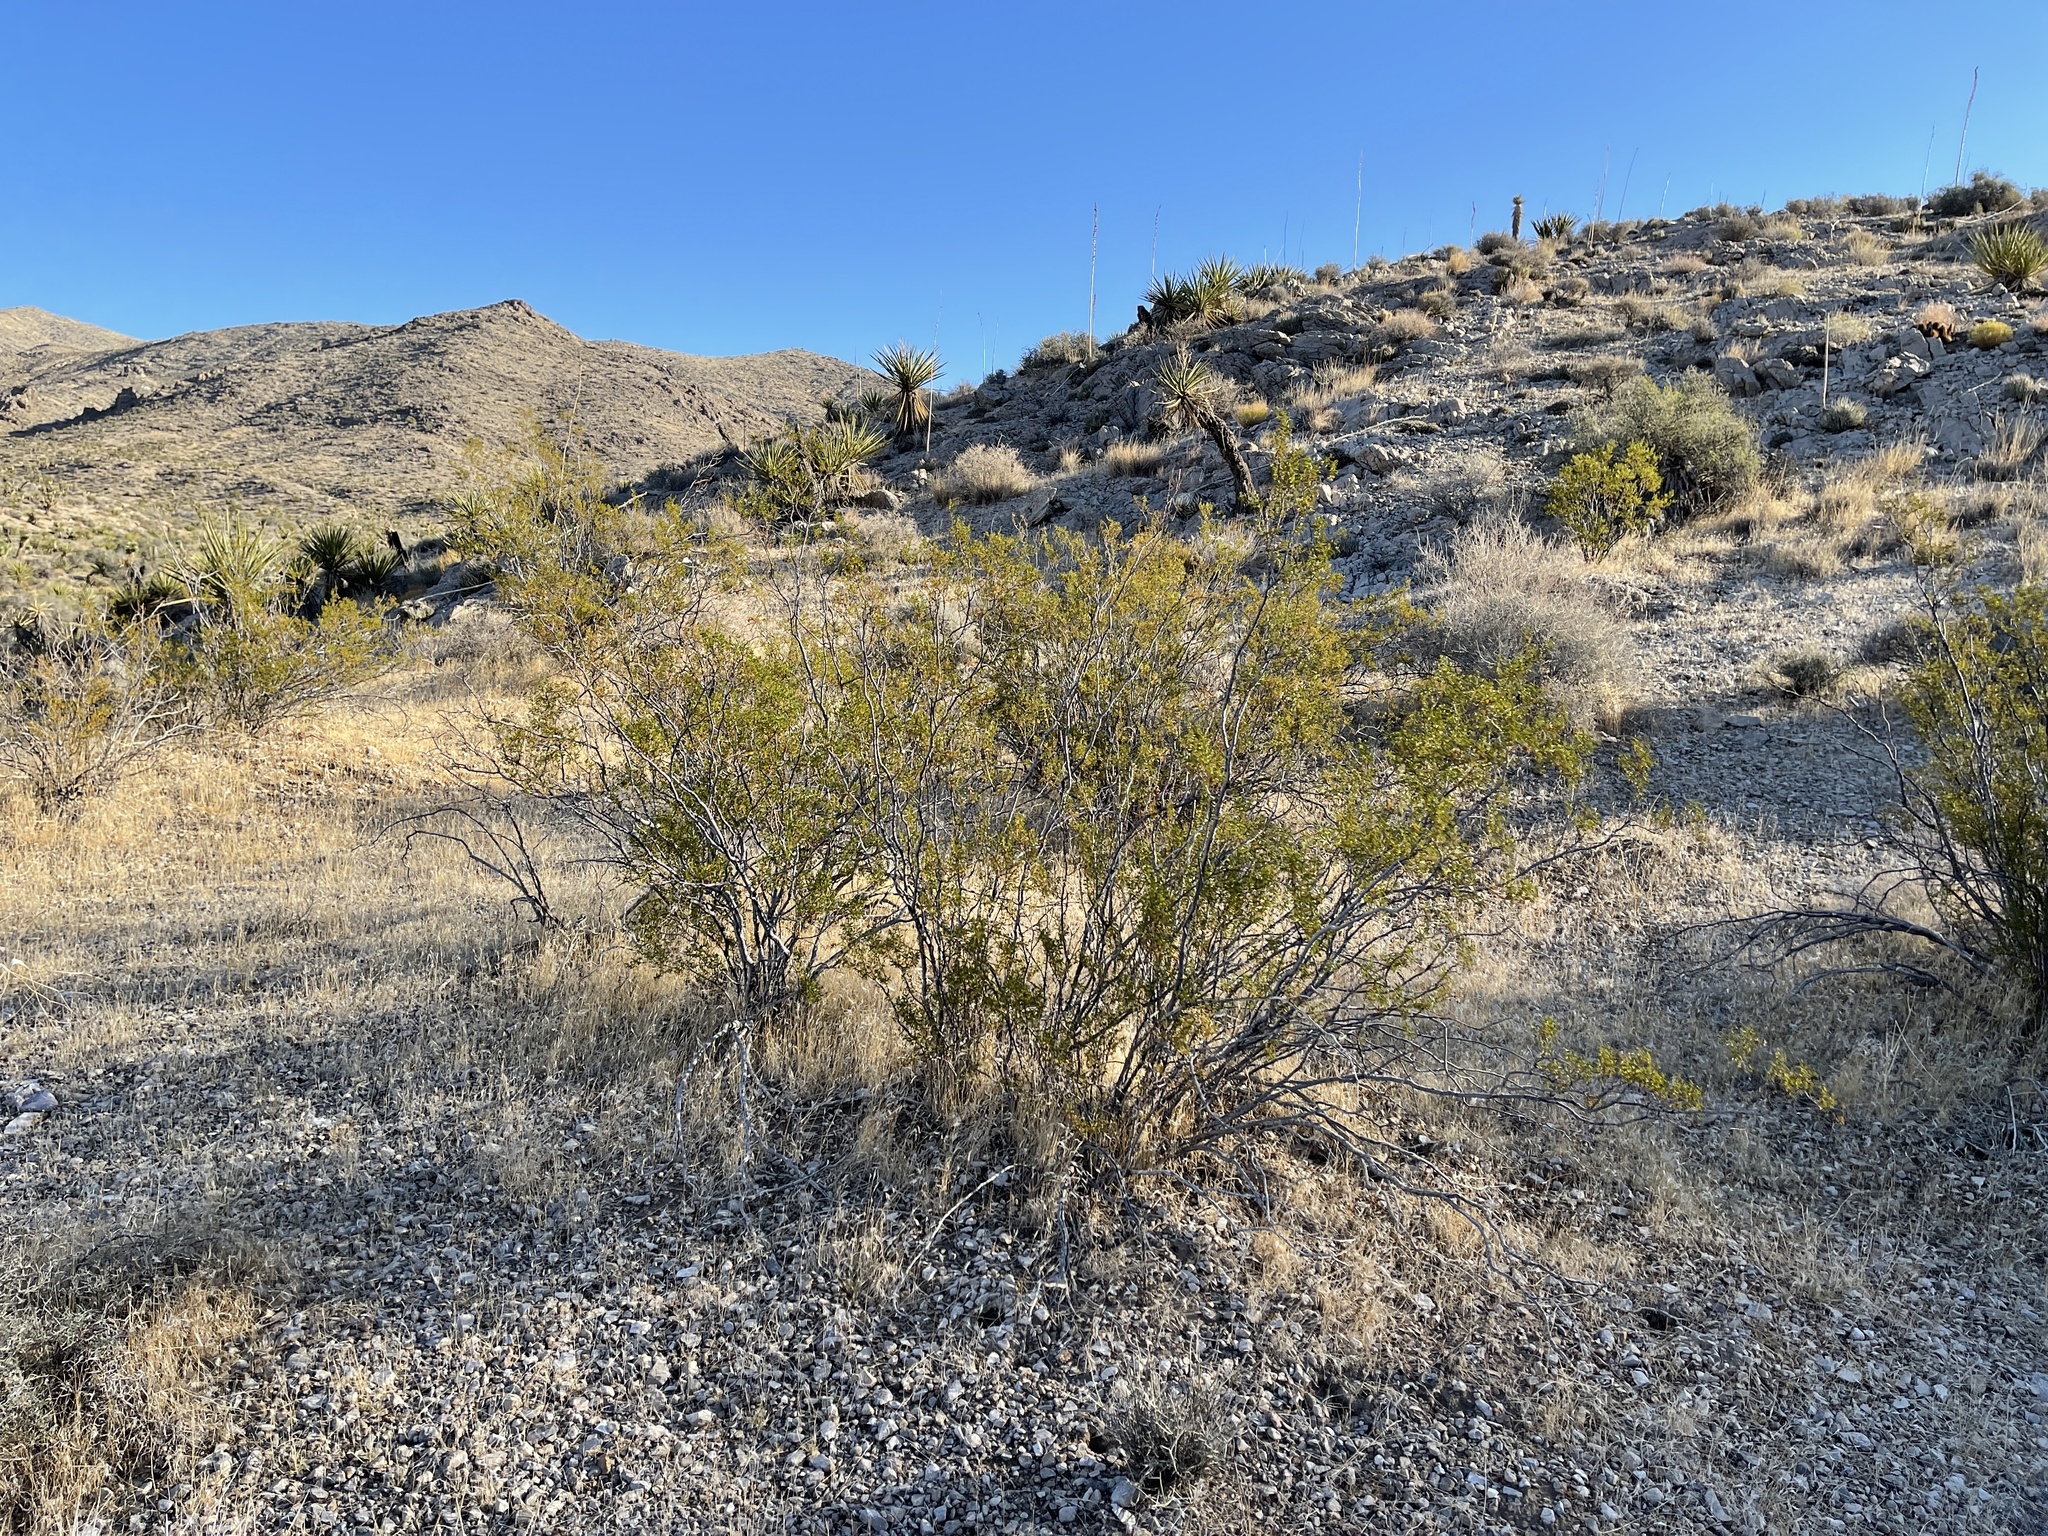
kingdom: Plantae
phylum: Tracheophyta
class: Magnoliopsida
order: Zygophyllales
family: Zygophyllaceae
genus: Larrea
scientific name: Larrea tridentata
